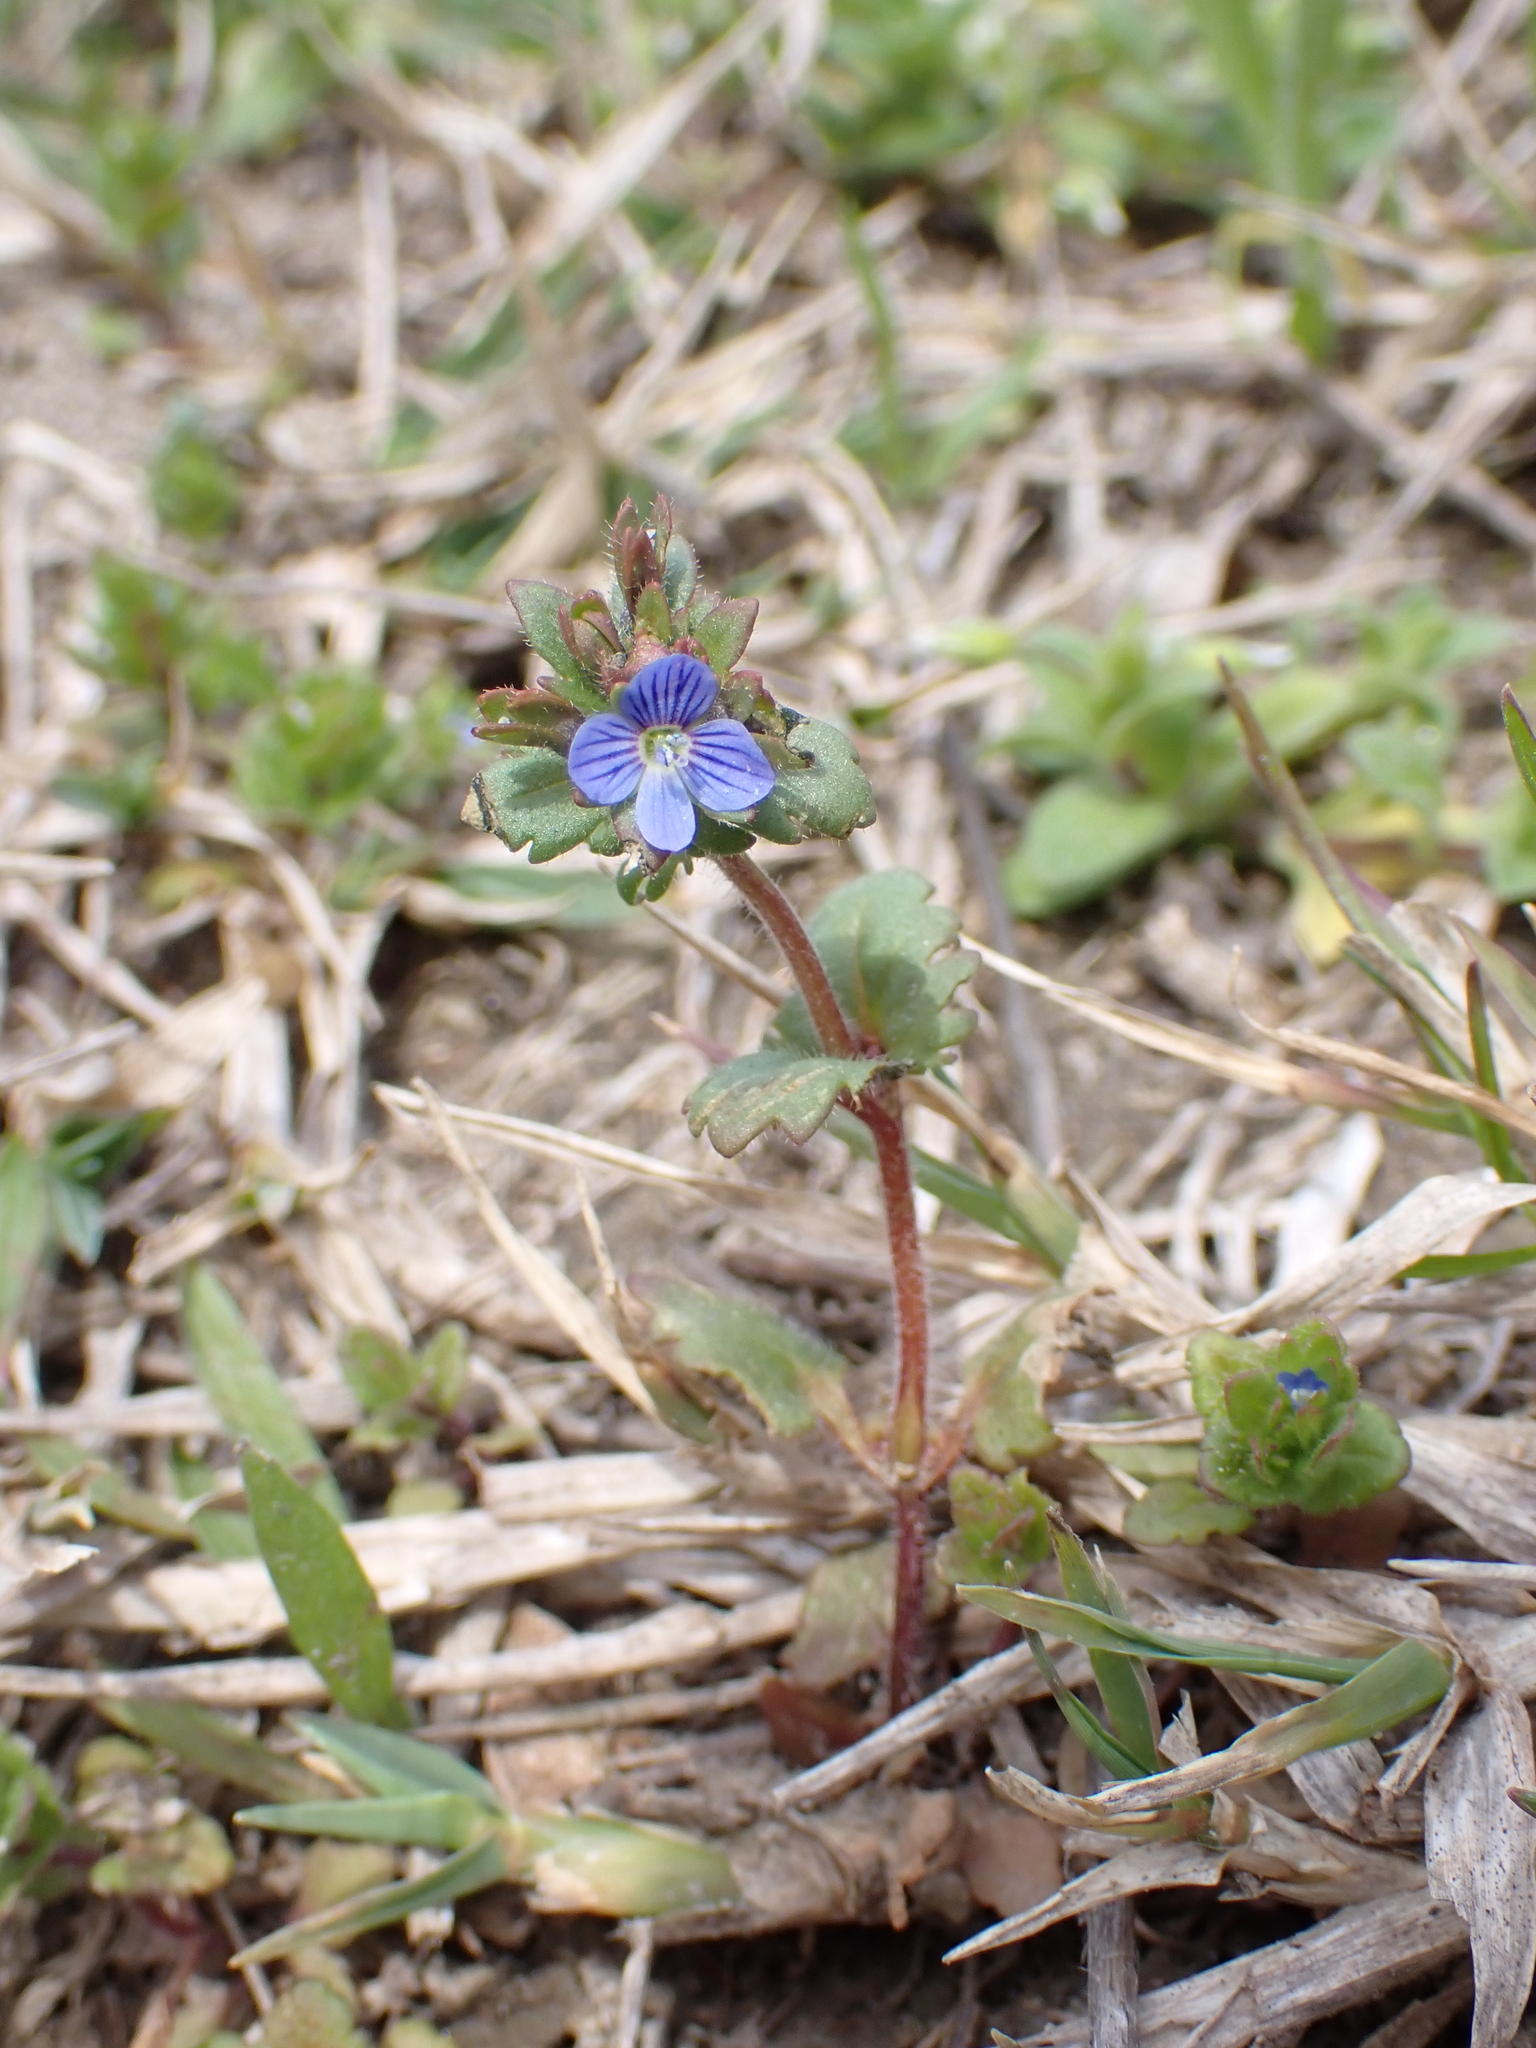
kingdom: Plantae
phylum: Tracheophyta
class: Magnoliopsida
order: Lamiales
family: Plantaginaceae
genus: Veronica
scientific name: Veronica praecox
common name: Breckland speedwell
